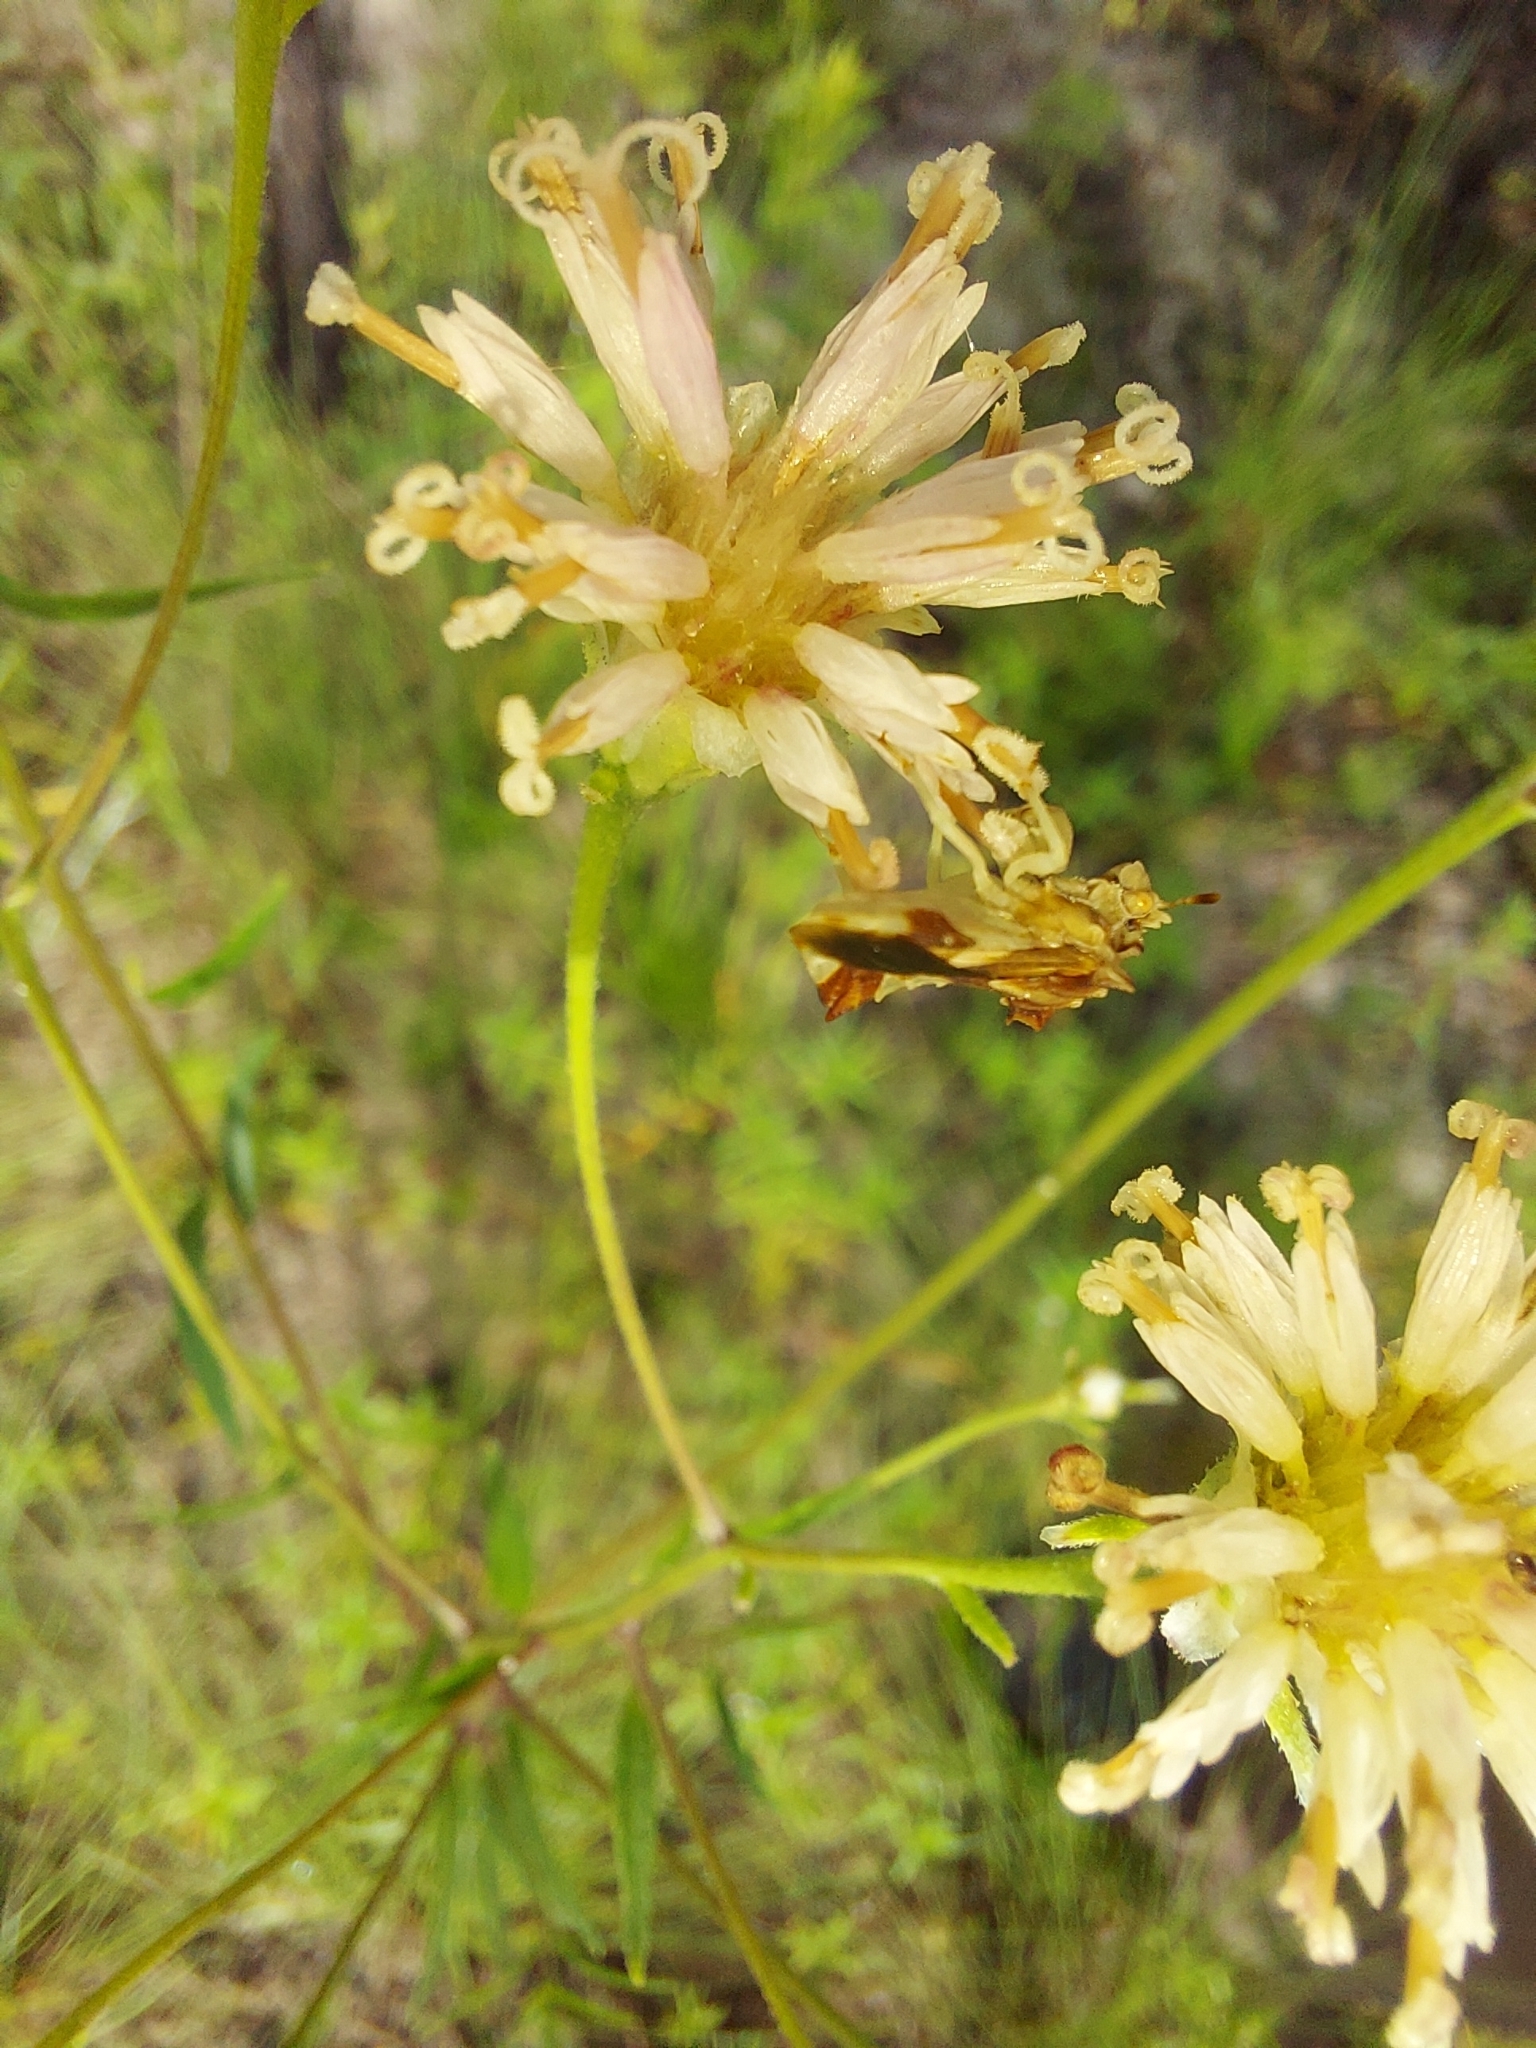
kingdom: Animalia
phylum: Arthropoda
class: Insecta
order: Hemiptera
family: Reduviidae
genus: Phymata
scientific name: Phymata americana
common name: Jagged ambush bug
